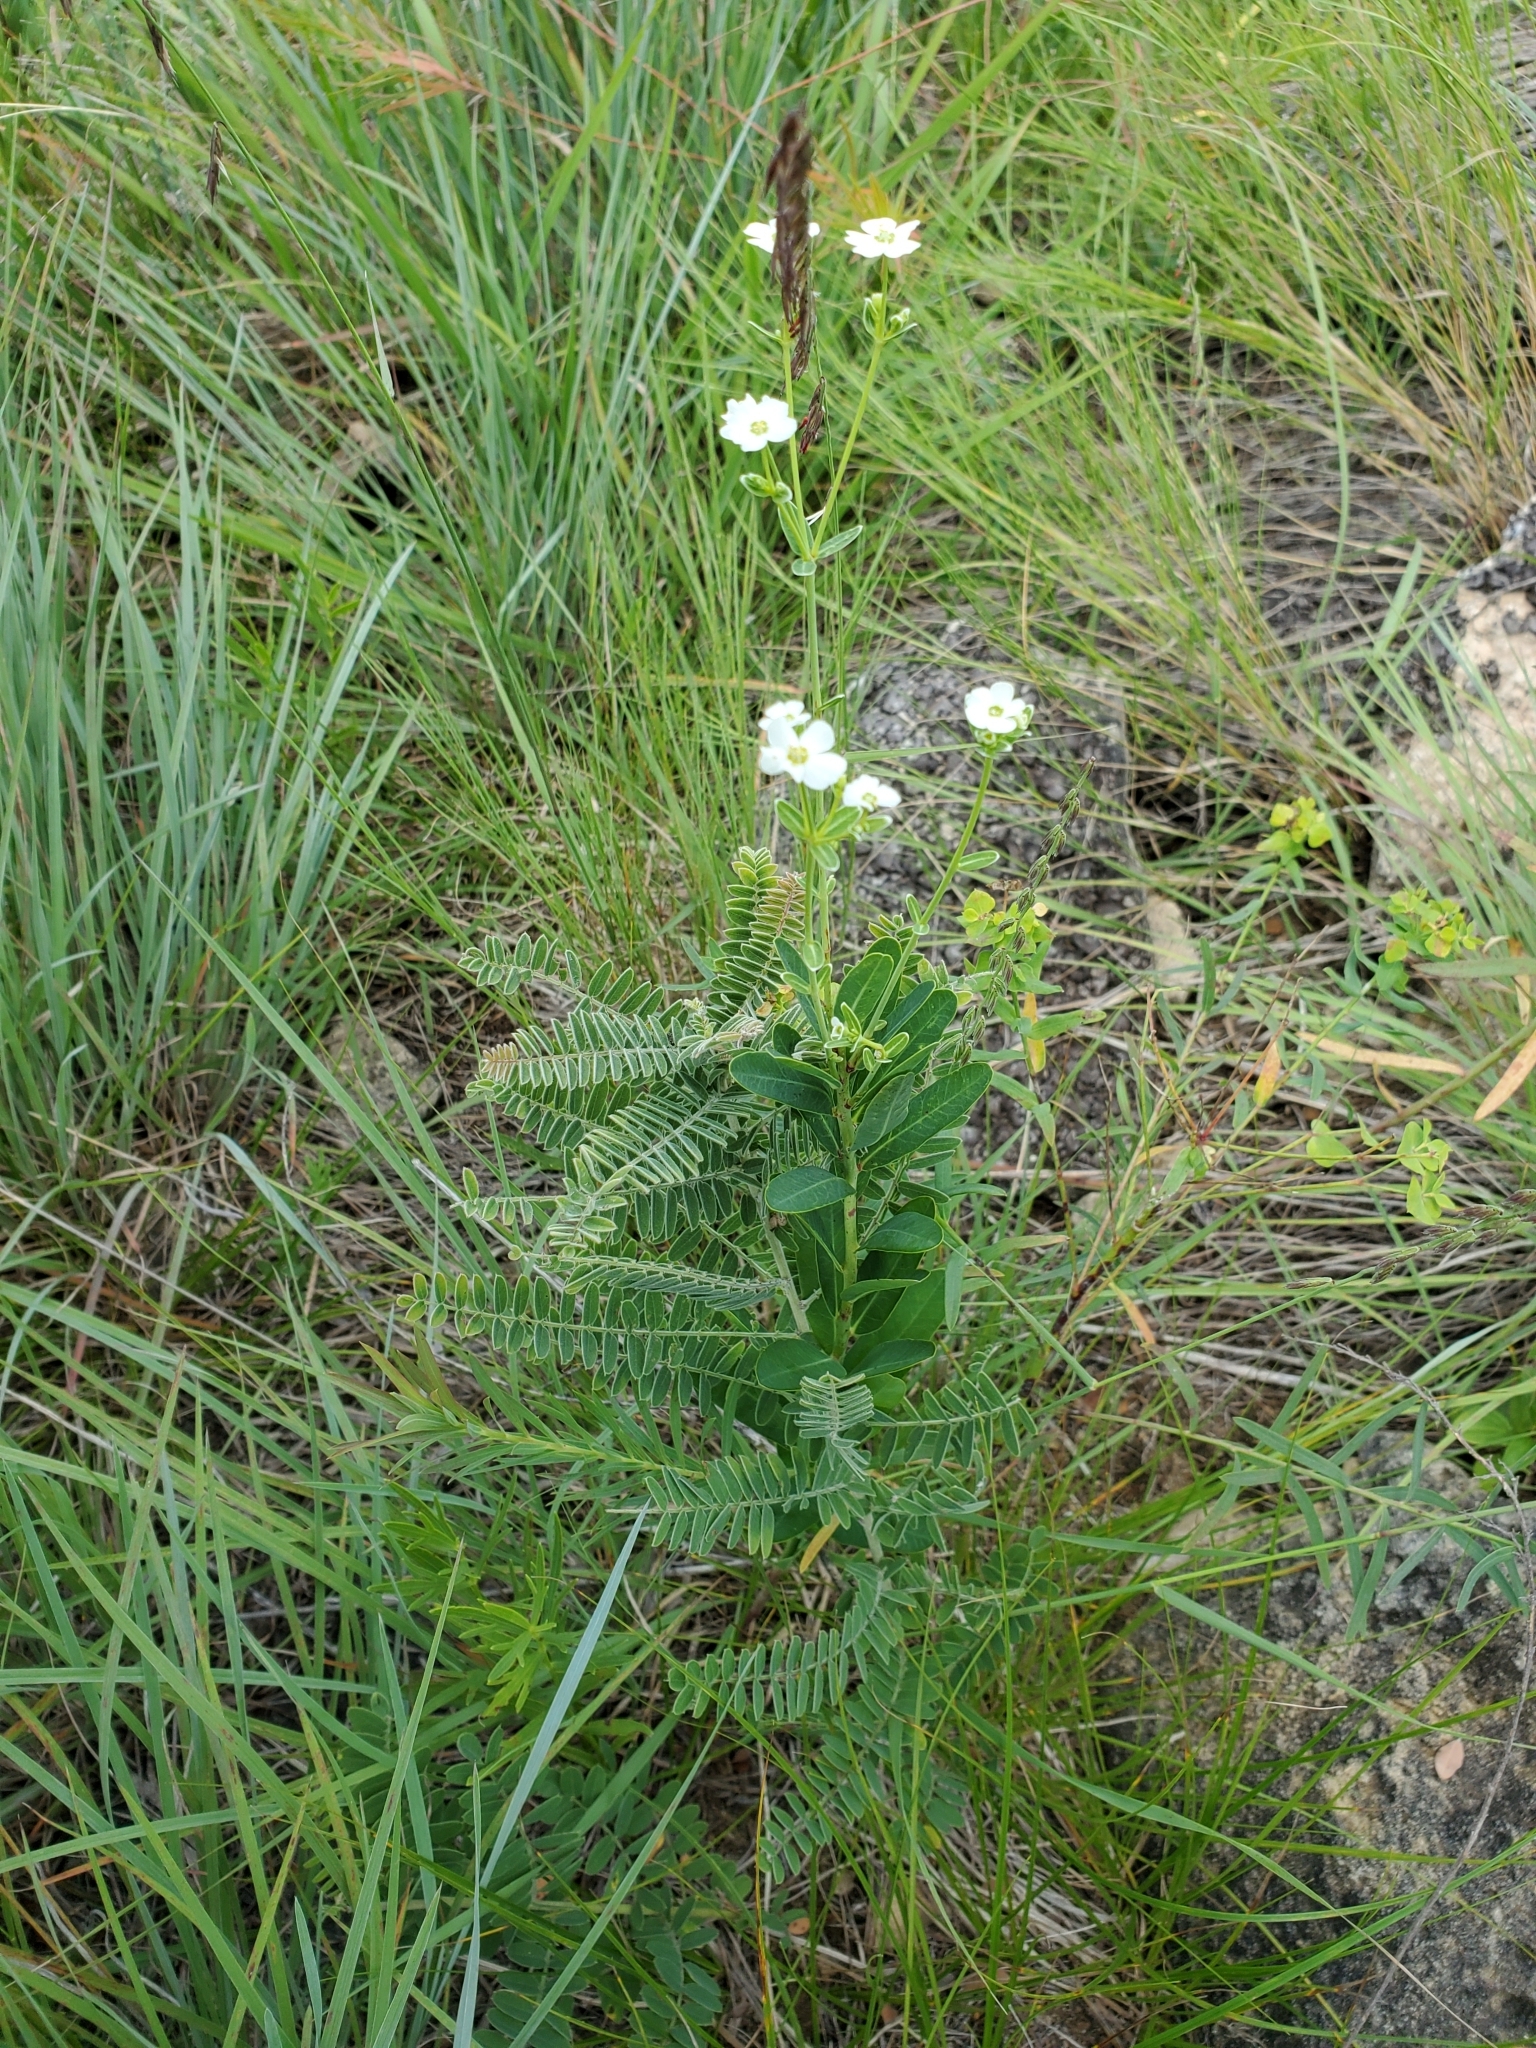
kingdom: Plantae
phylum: Tracheophyta
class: Magnoliopsida
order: Malpighiales
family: Euphorbiaceae
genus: Euphorbia
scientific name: Euphorbia corollata
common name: Flowering spurge
